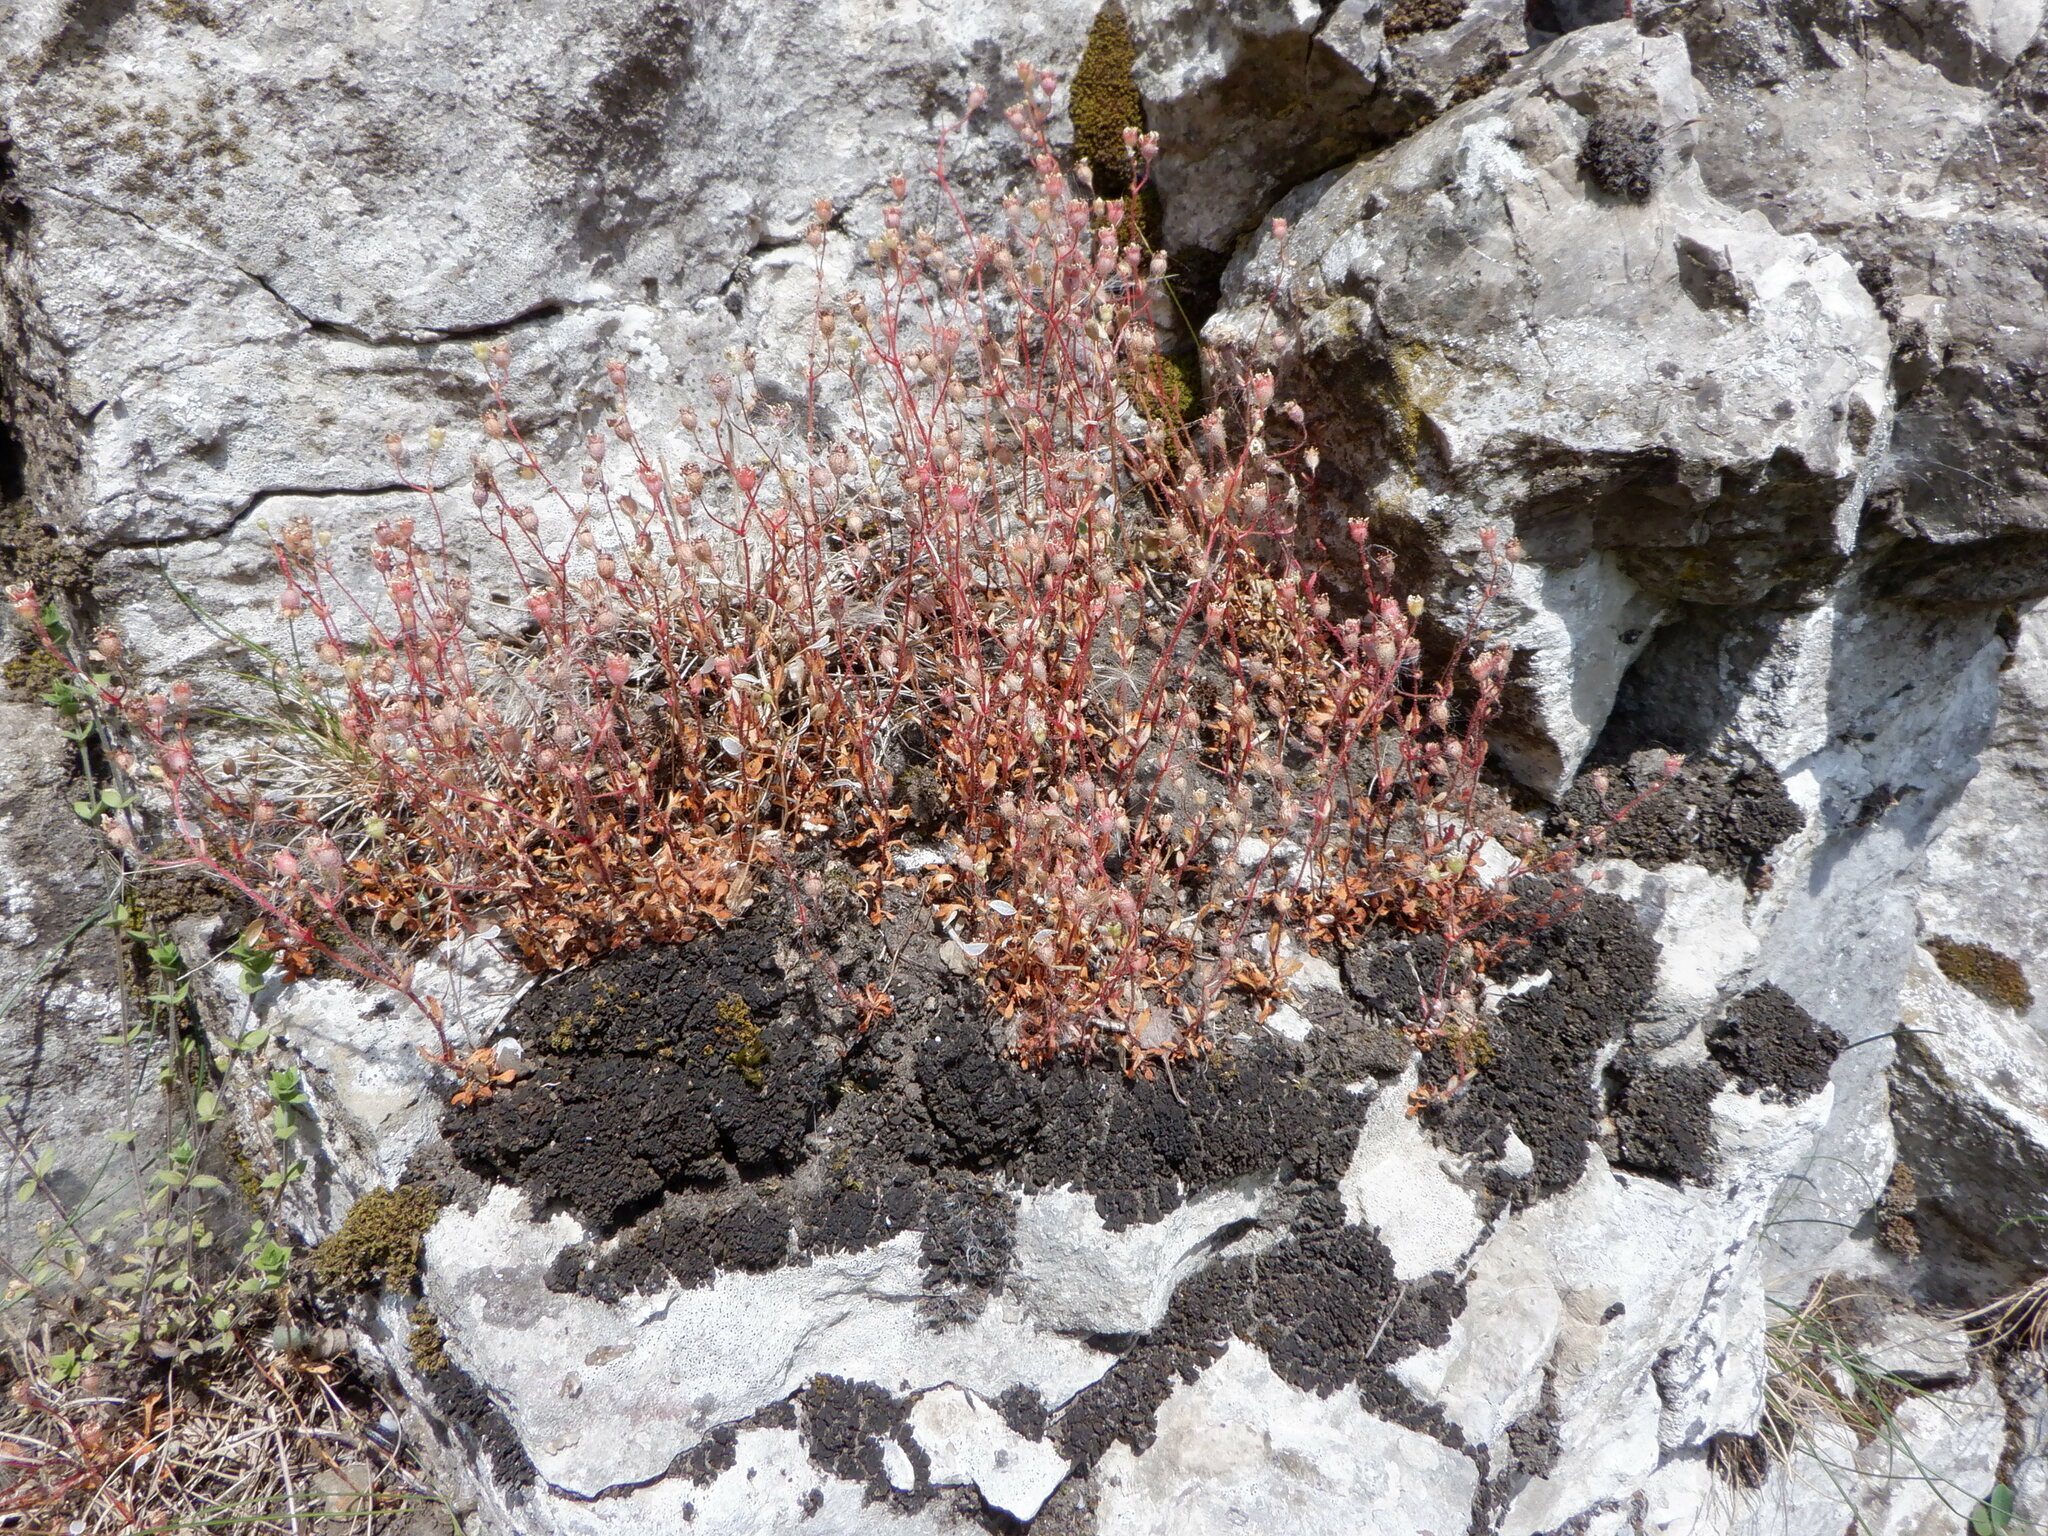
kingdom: Plantae
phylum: Tracheophyta
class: Magnoliopsida
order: Saxifragales
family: Saxifragaceae
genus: Saxifraga
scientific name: Saxifraga tridactylites
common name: Rue-leaved saxifrage
